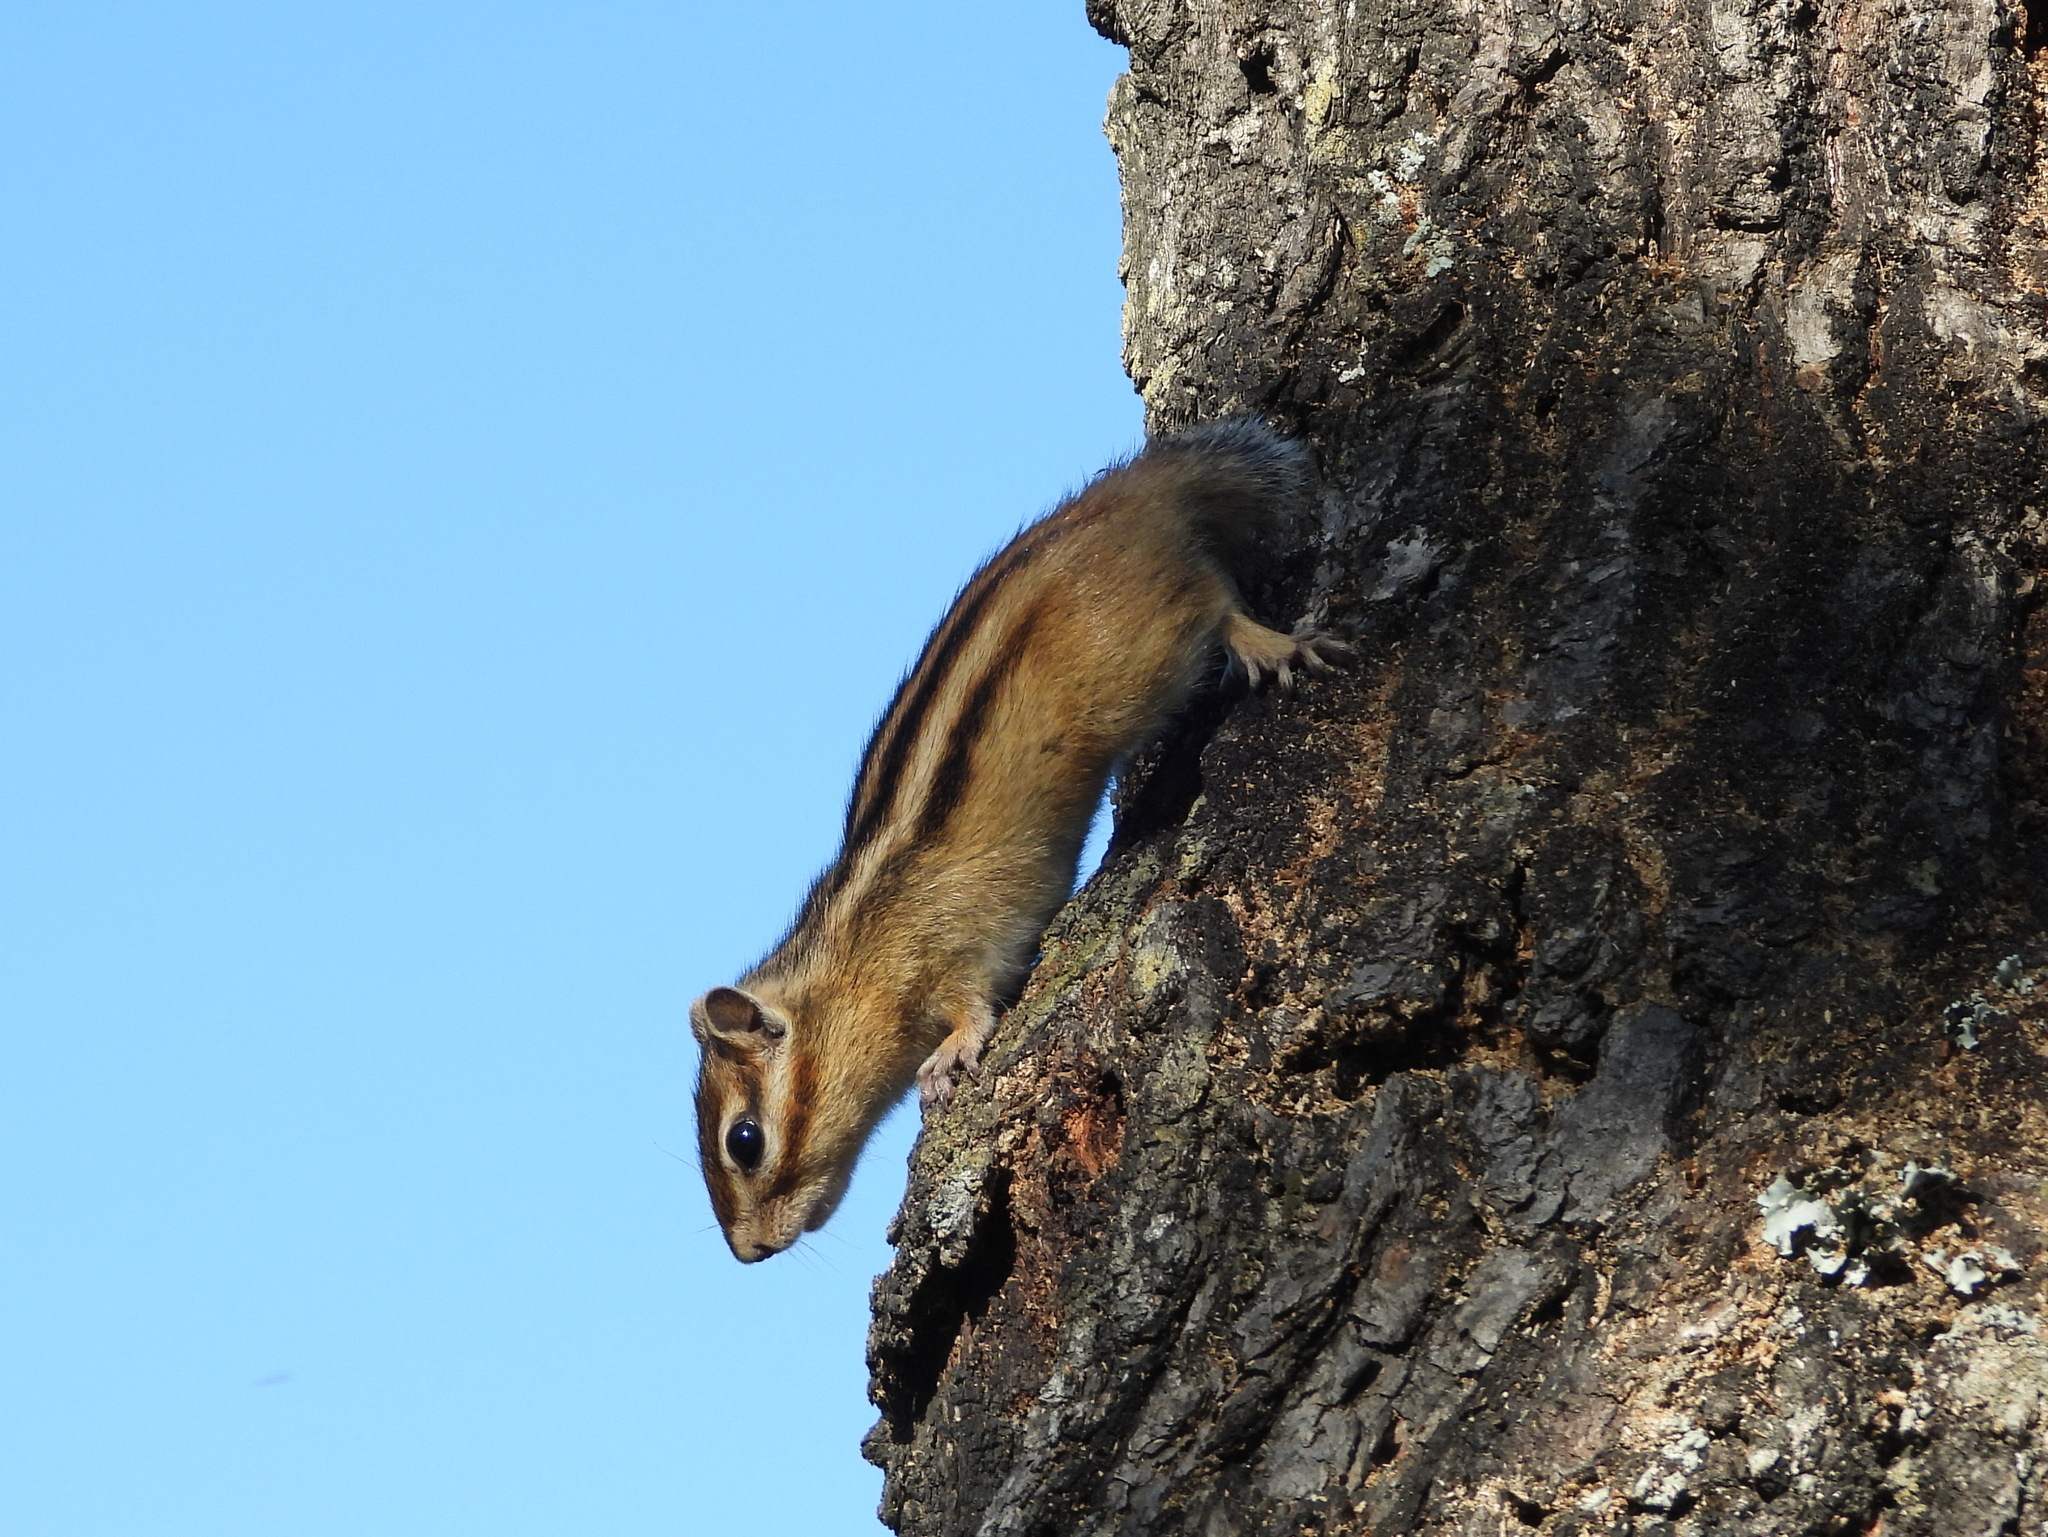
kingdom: Animalia
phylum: Chordata
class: Mammalia
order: Rodentia
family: Sciuridae
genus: Tamias
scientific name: Tamias sibiricus
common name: Siberian chipmunk
